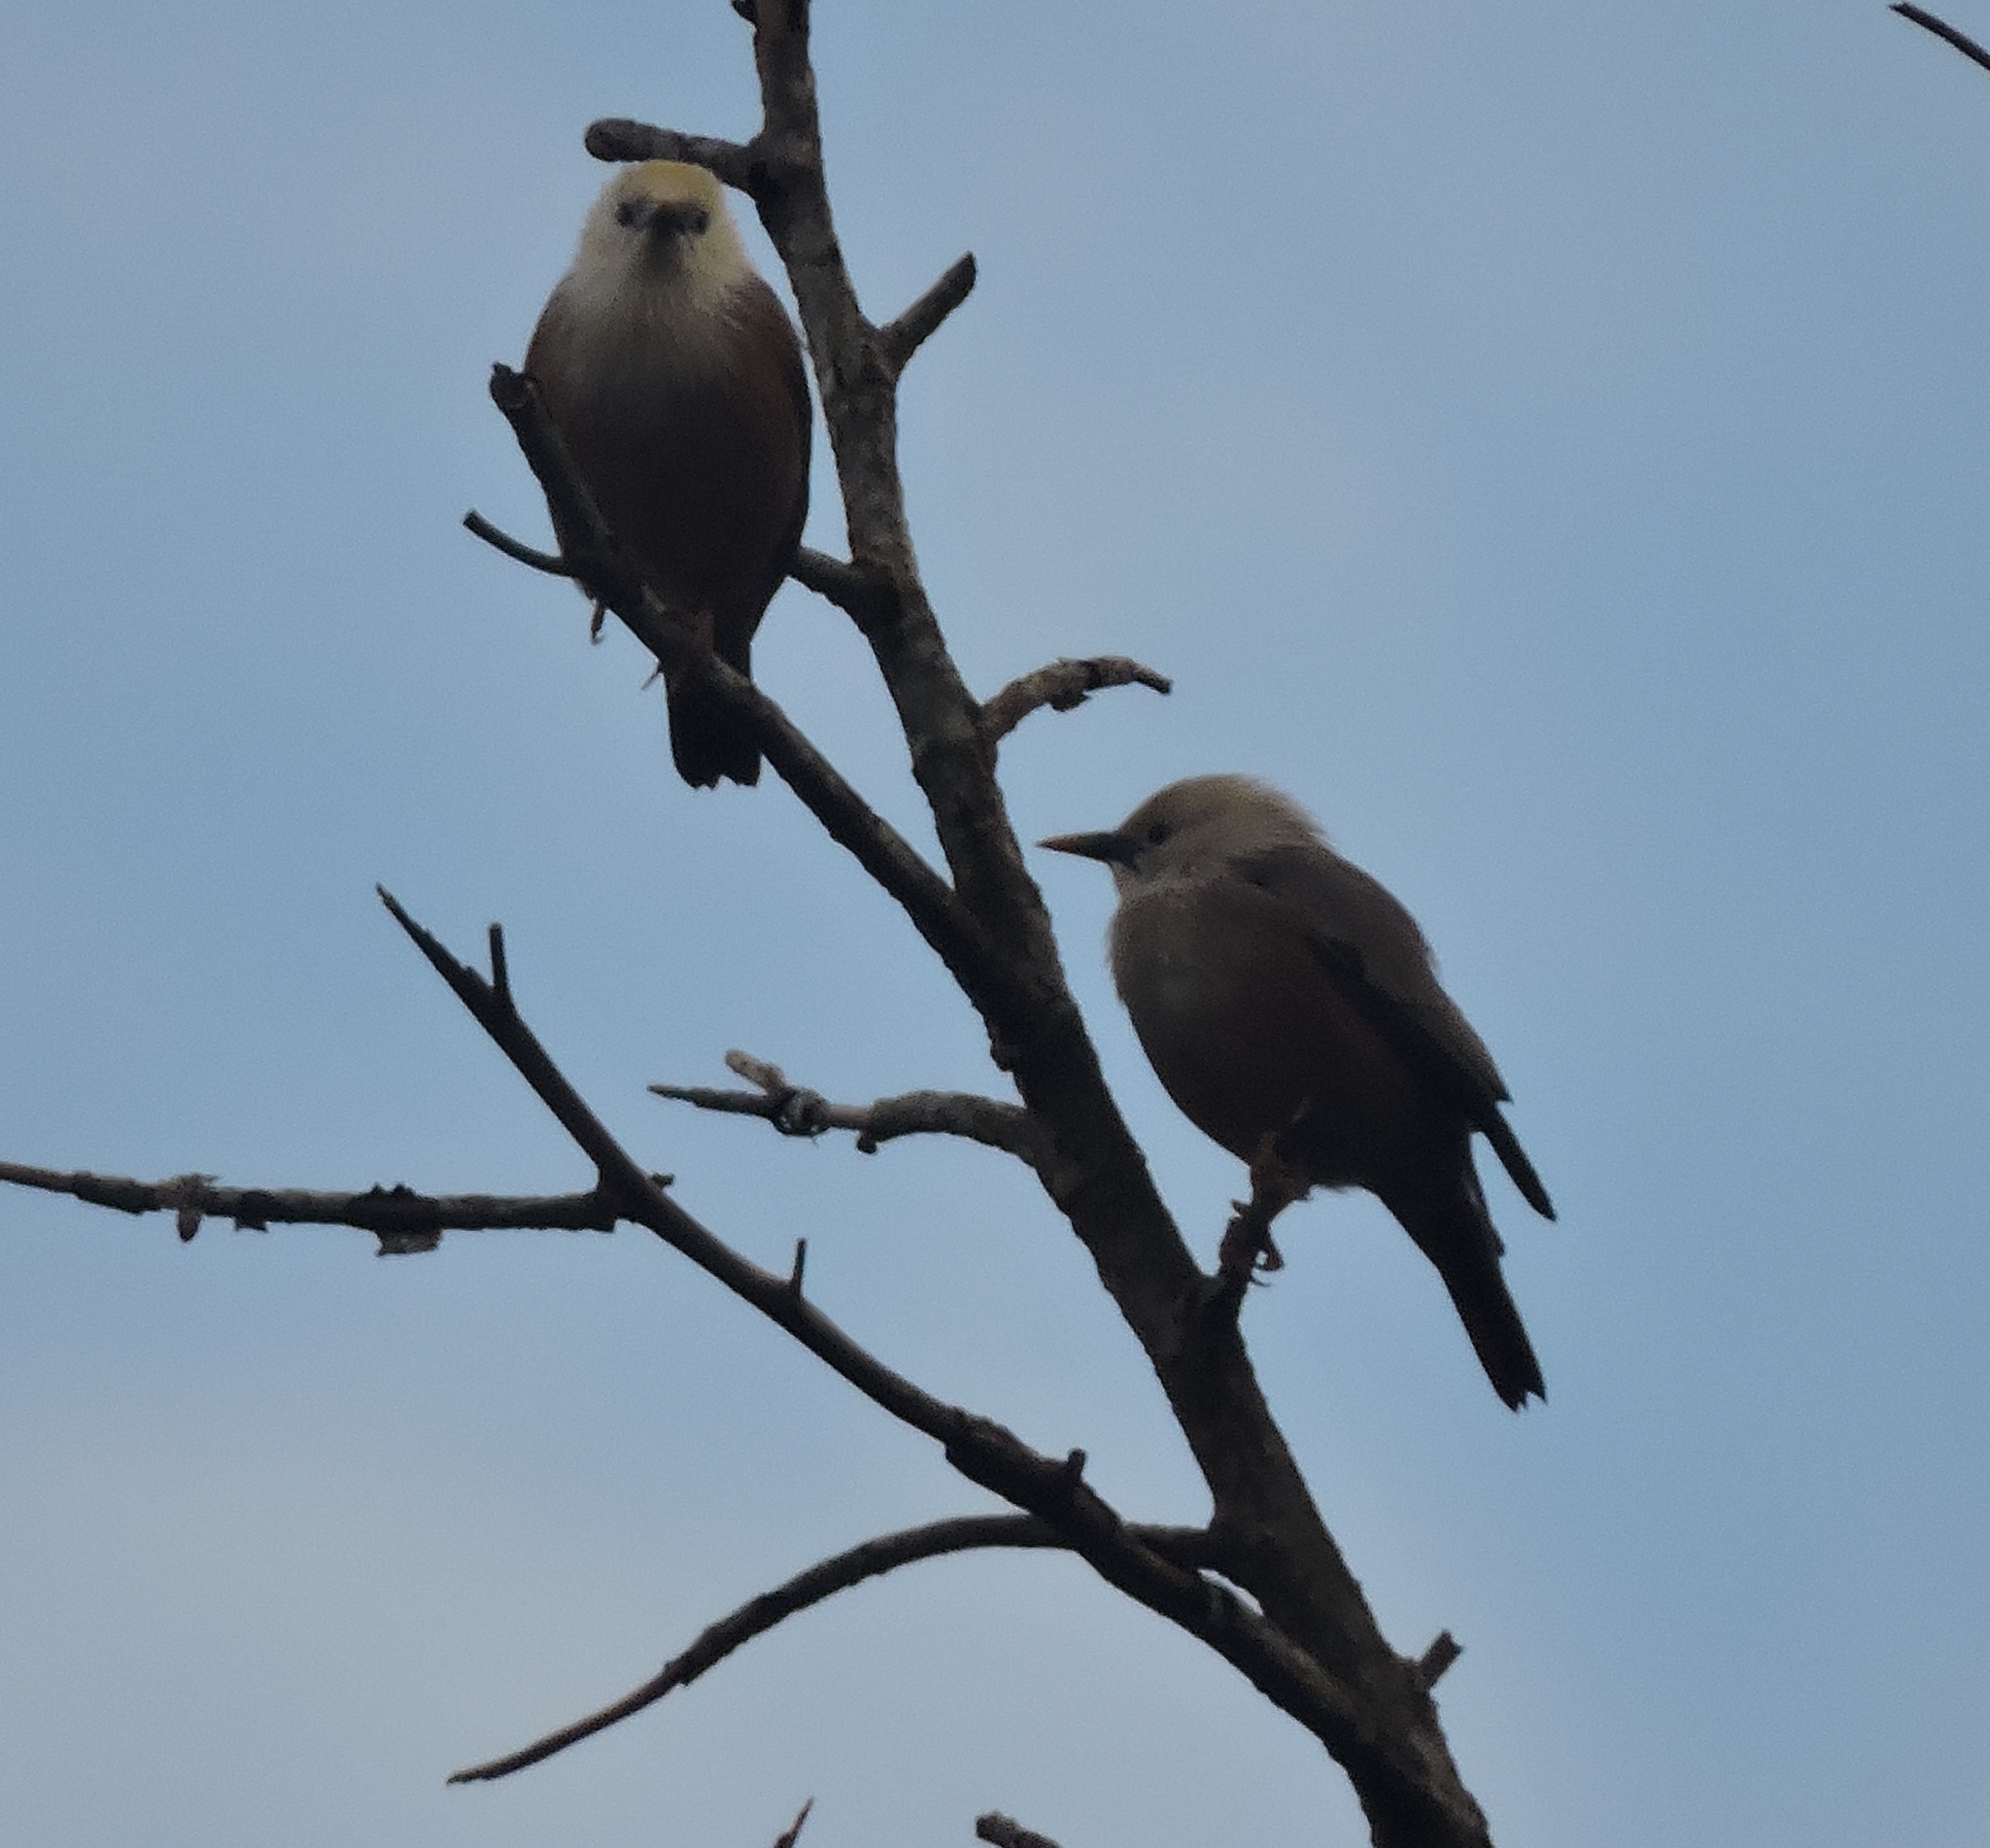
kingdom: Animalia
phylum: Chordata
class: Aves
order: Passeriformes
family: Sturnidae
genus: Sturnia
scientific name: Sturnia blythii
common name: Malabar starling
